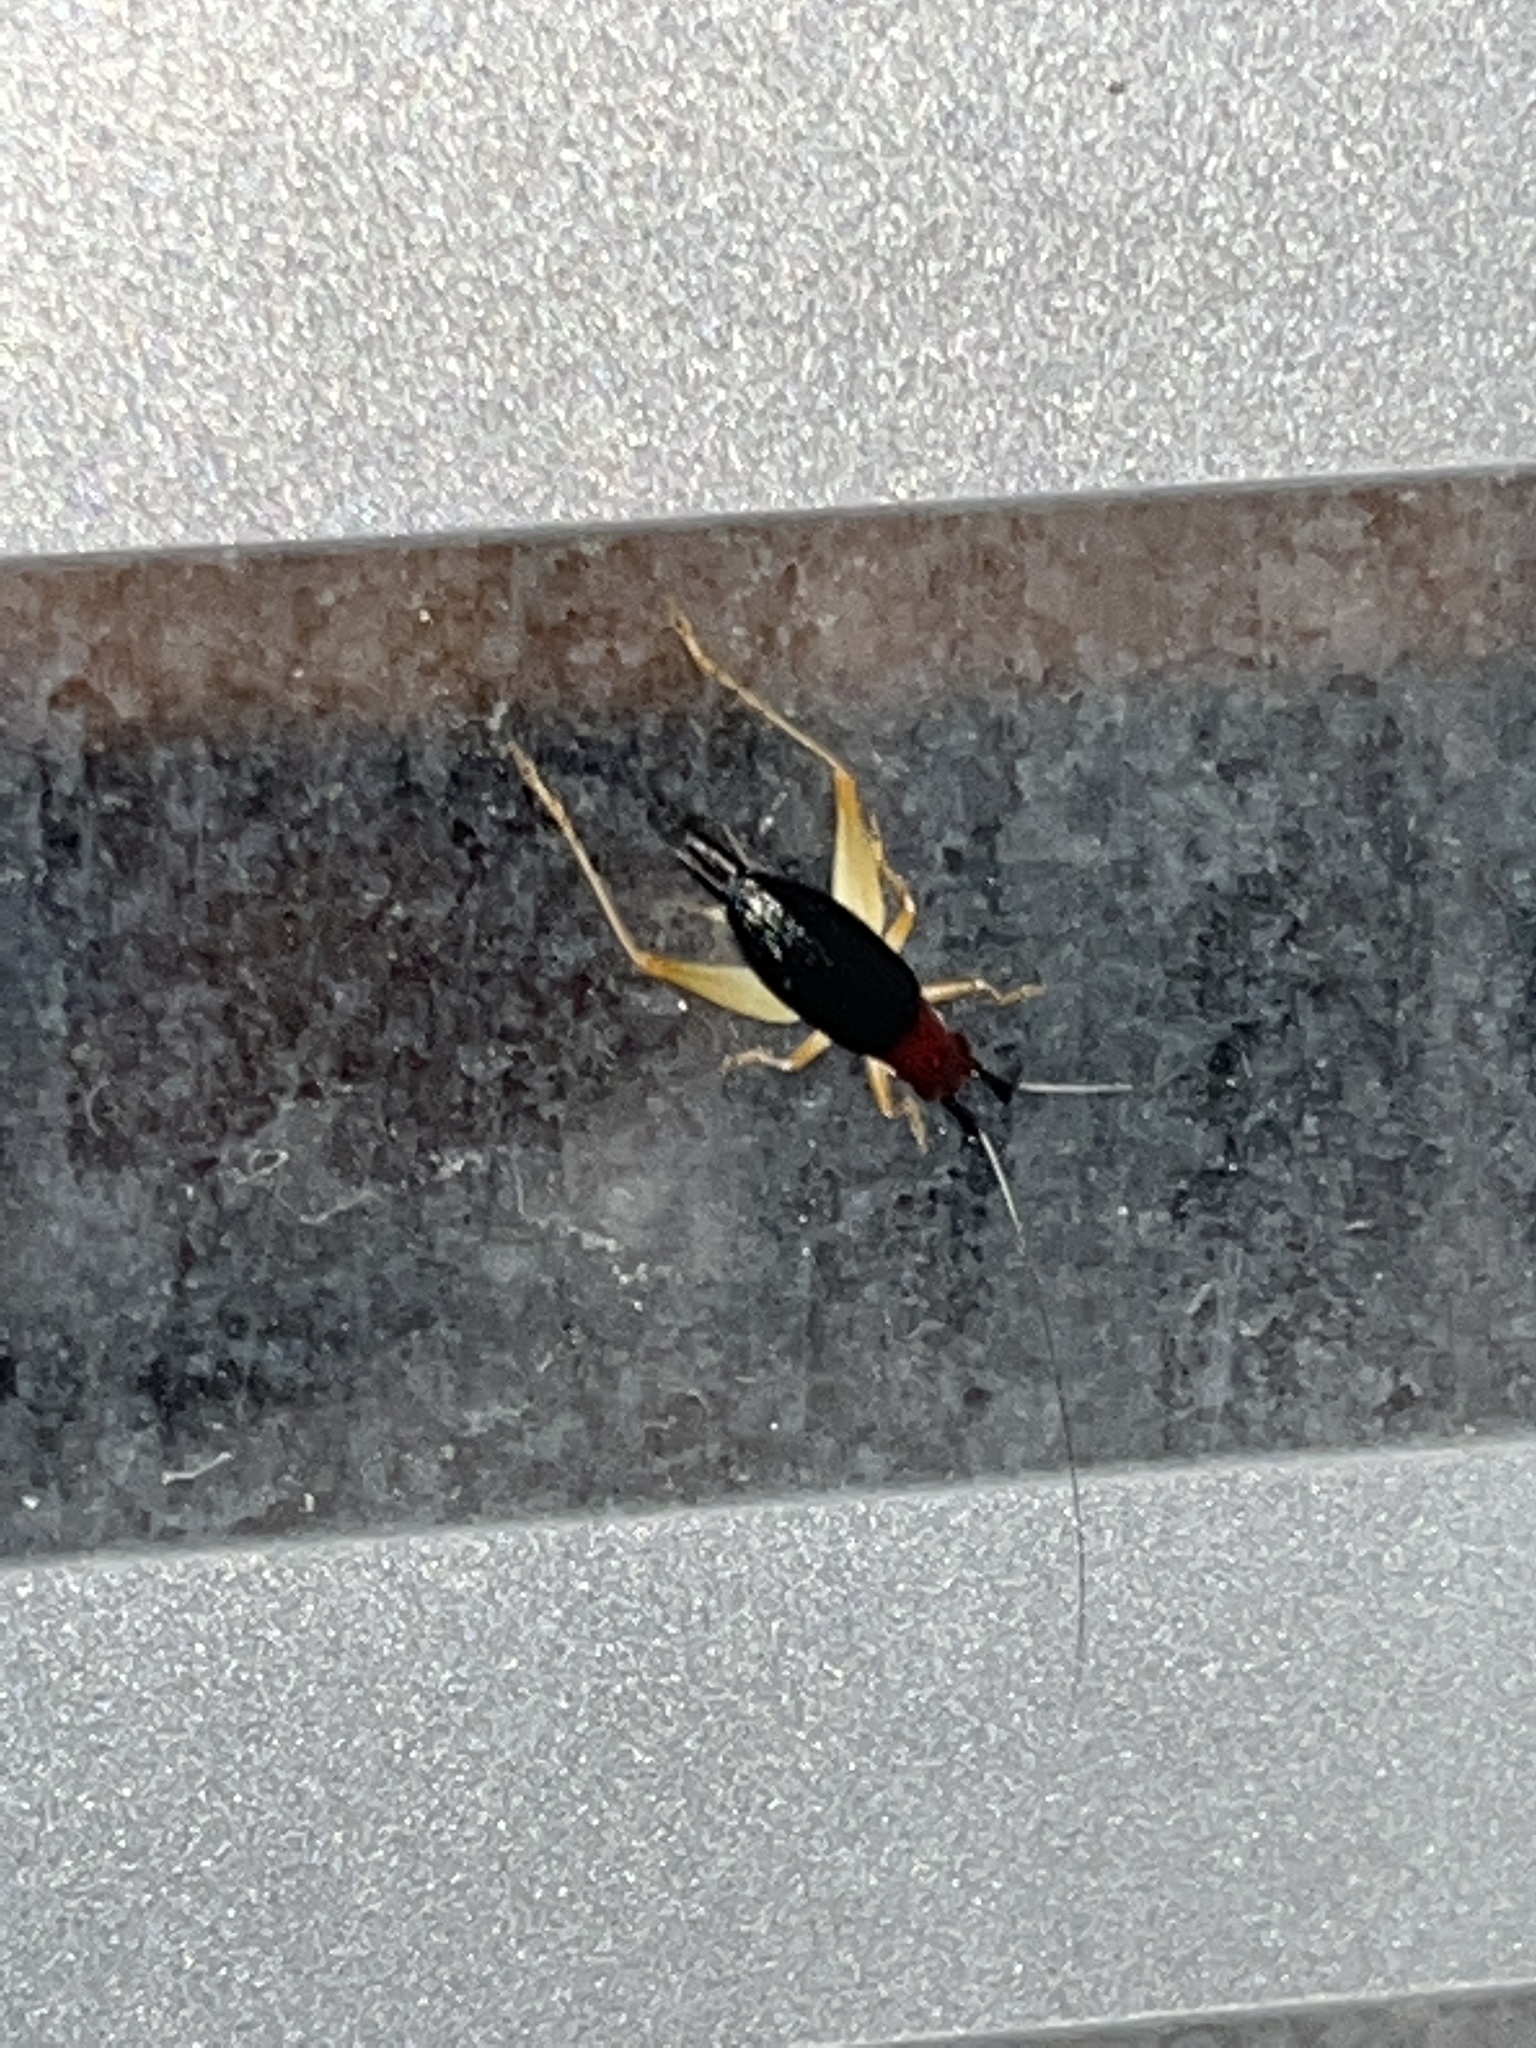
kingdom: Animalia
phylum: Arthropoda
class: Insecta
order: Orthoptera
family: Trigonidiidae
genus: Phyllopalpus
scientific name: Phyllopalpus pulchellus
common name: Handsome trig
